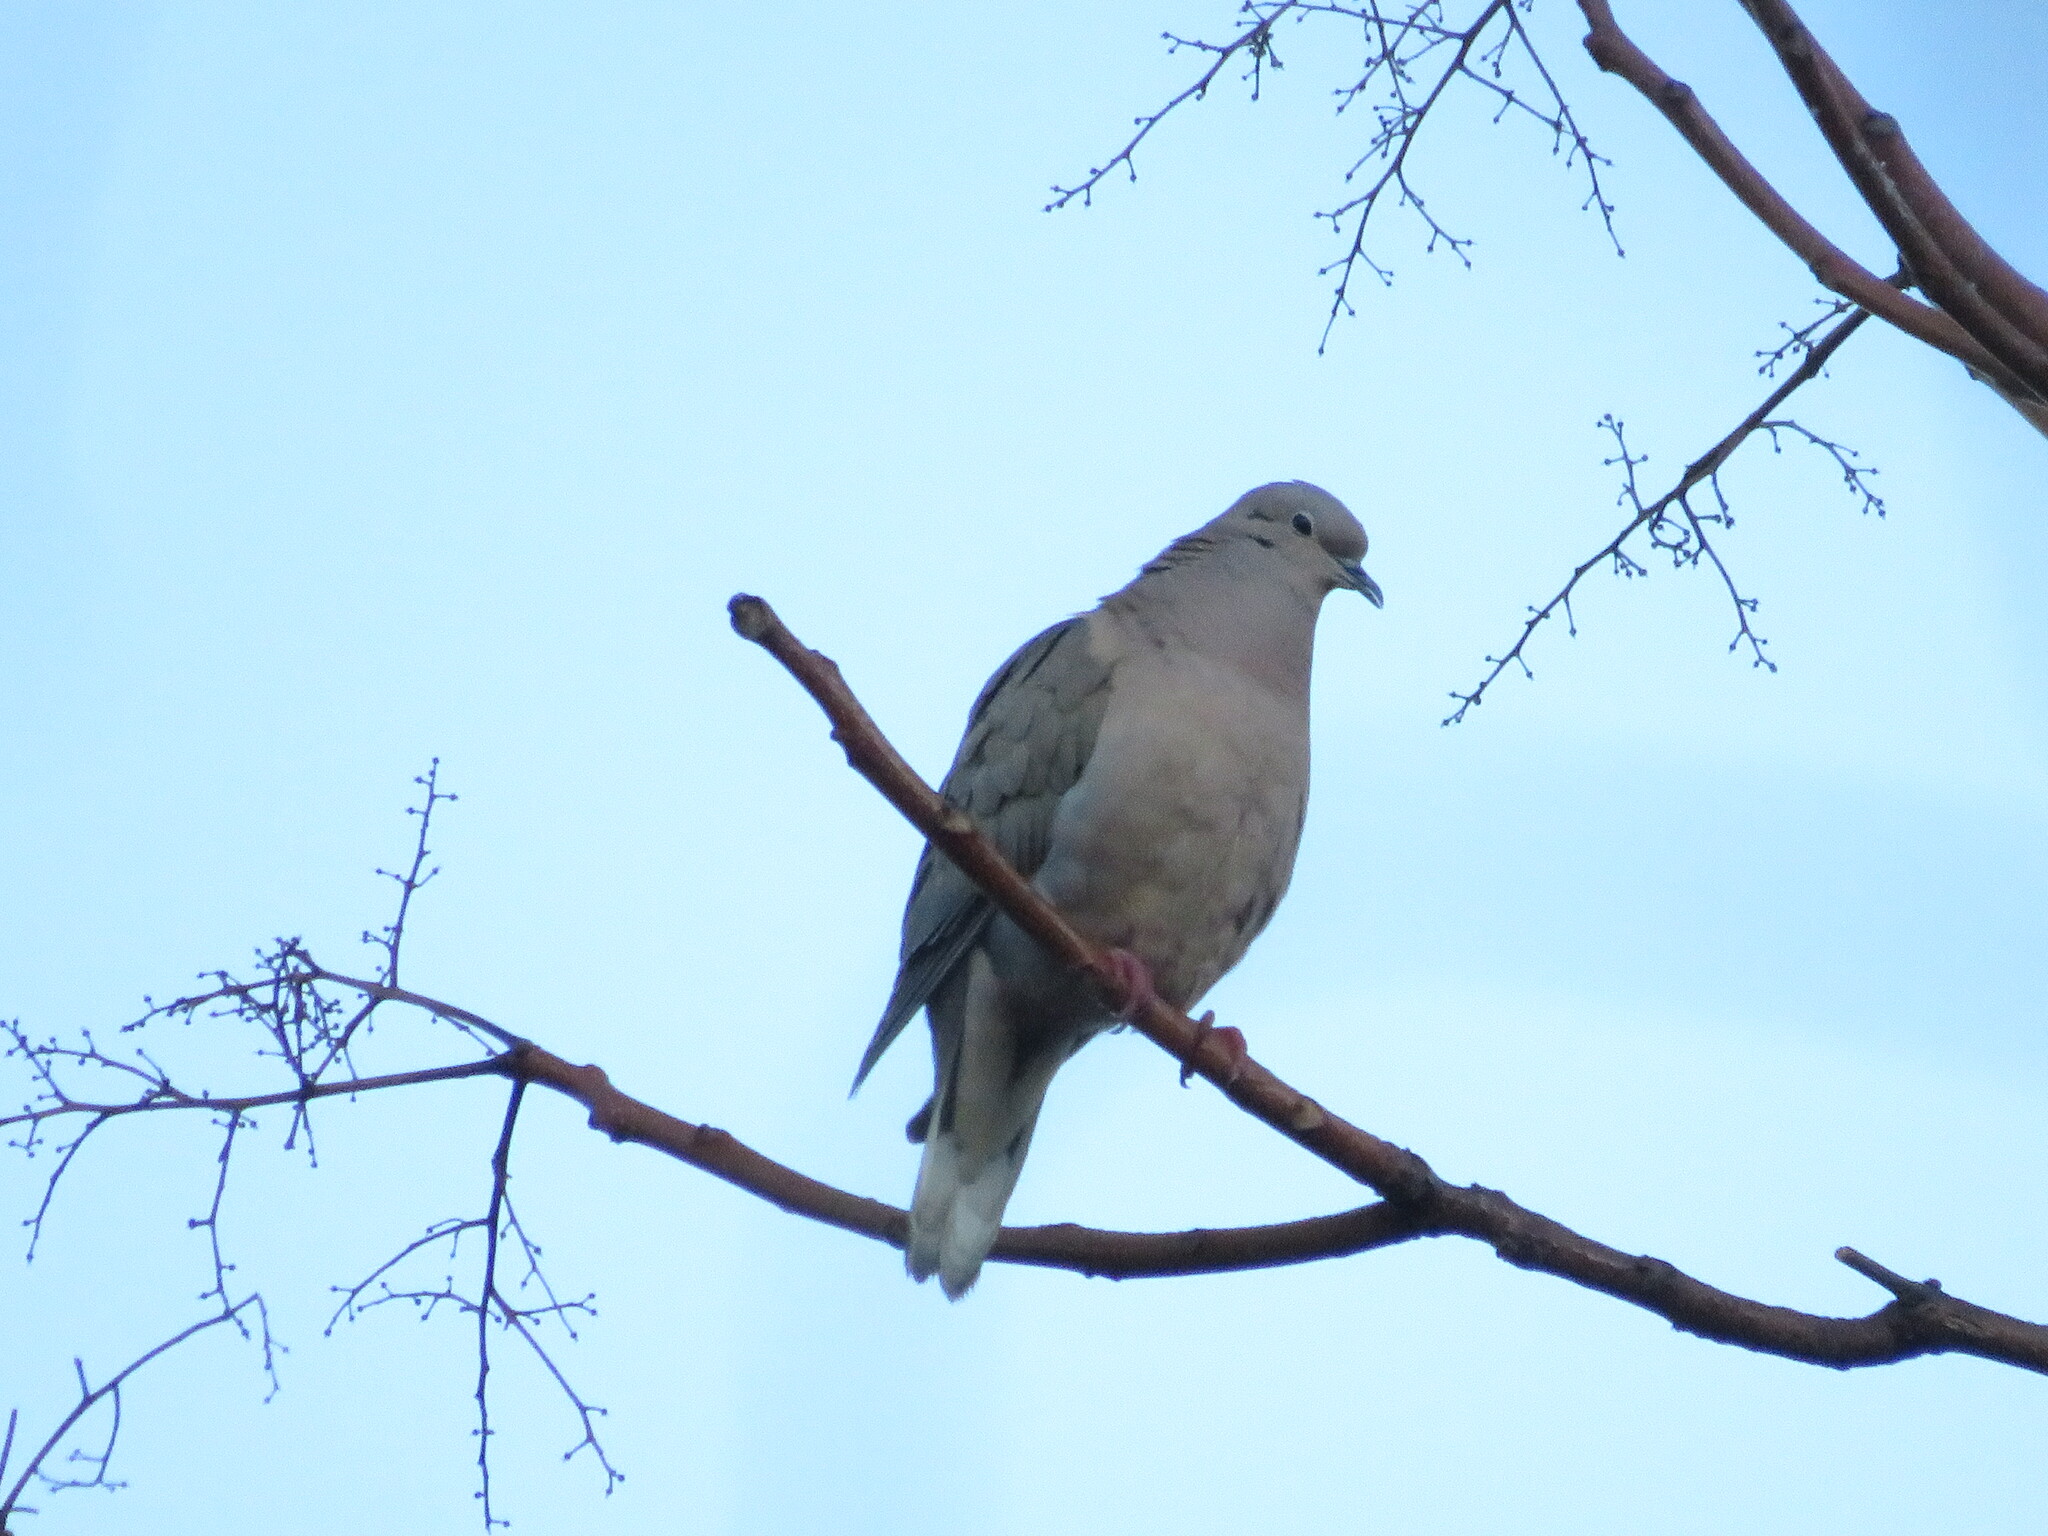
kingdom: Animalia
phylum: Chordata
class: Aves
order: Columbiformes
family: Columbidae
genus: Zenaida
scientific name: Zenaida auriculata
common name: Eared dove
